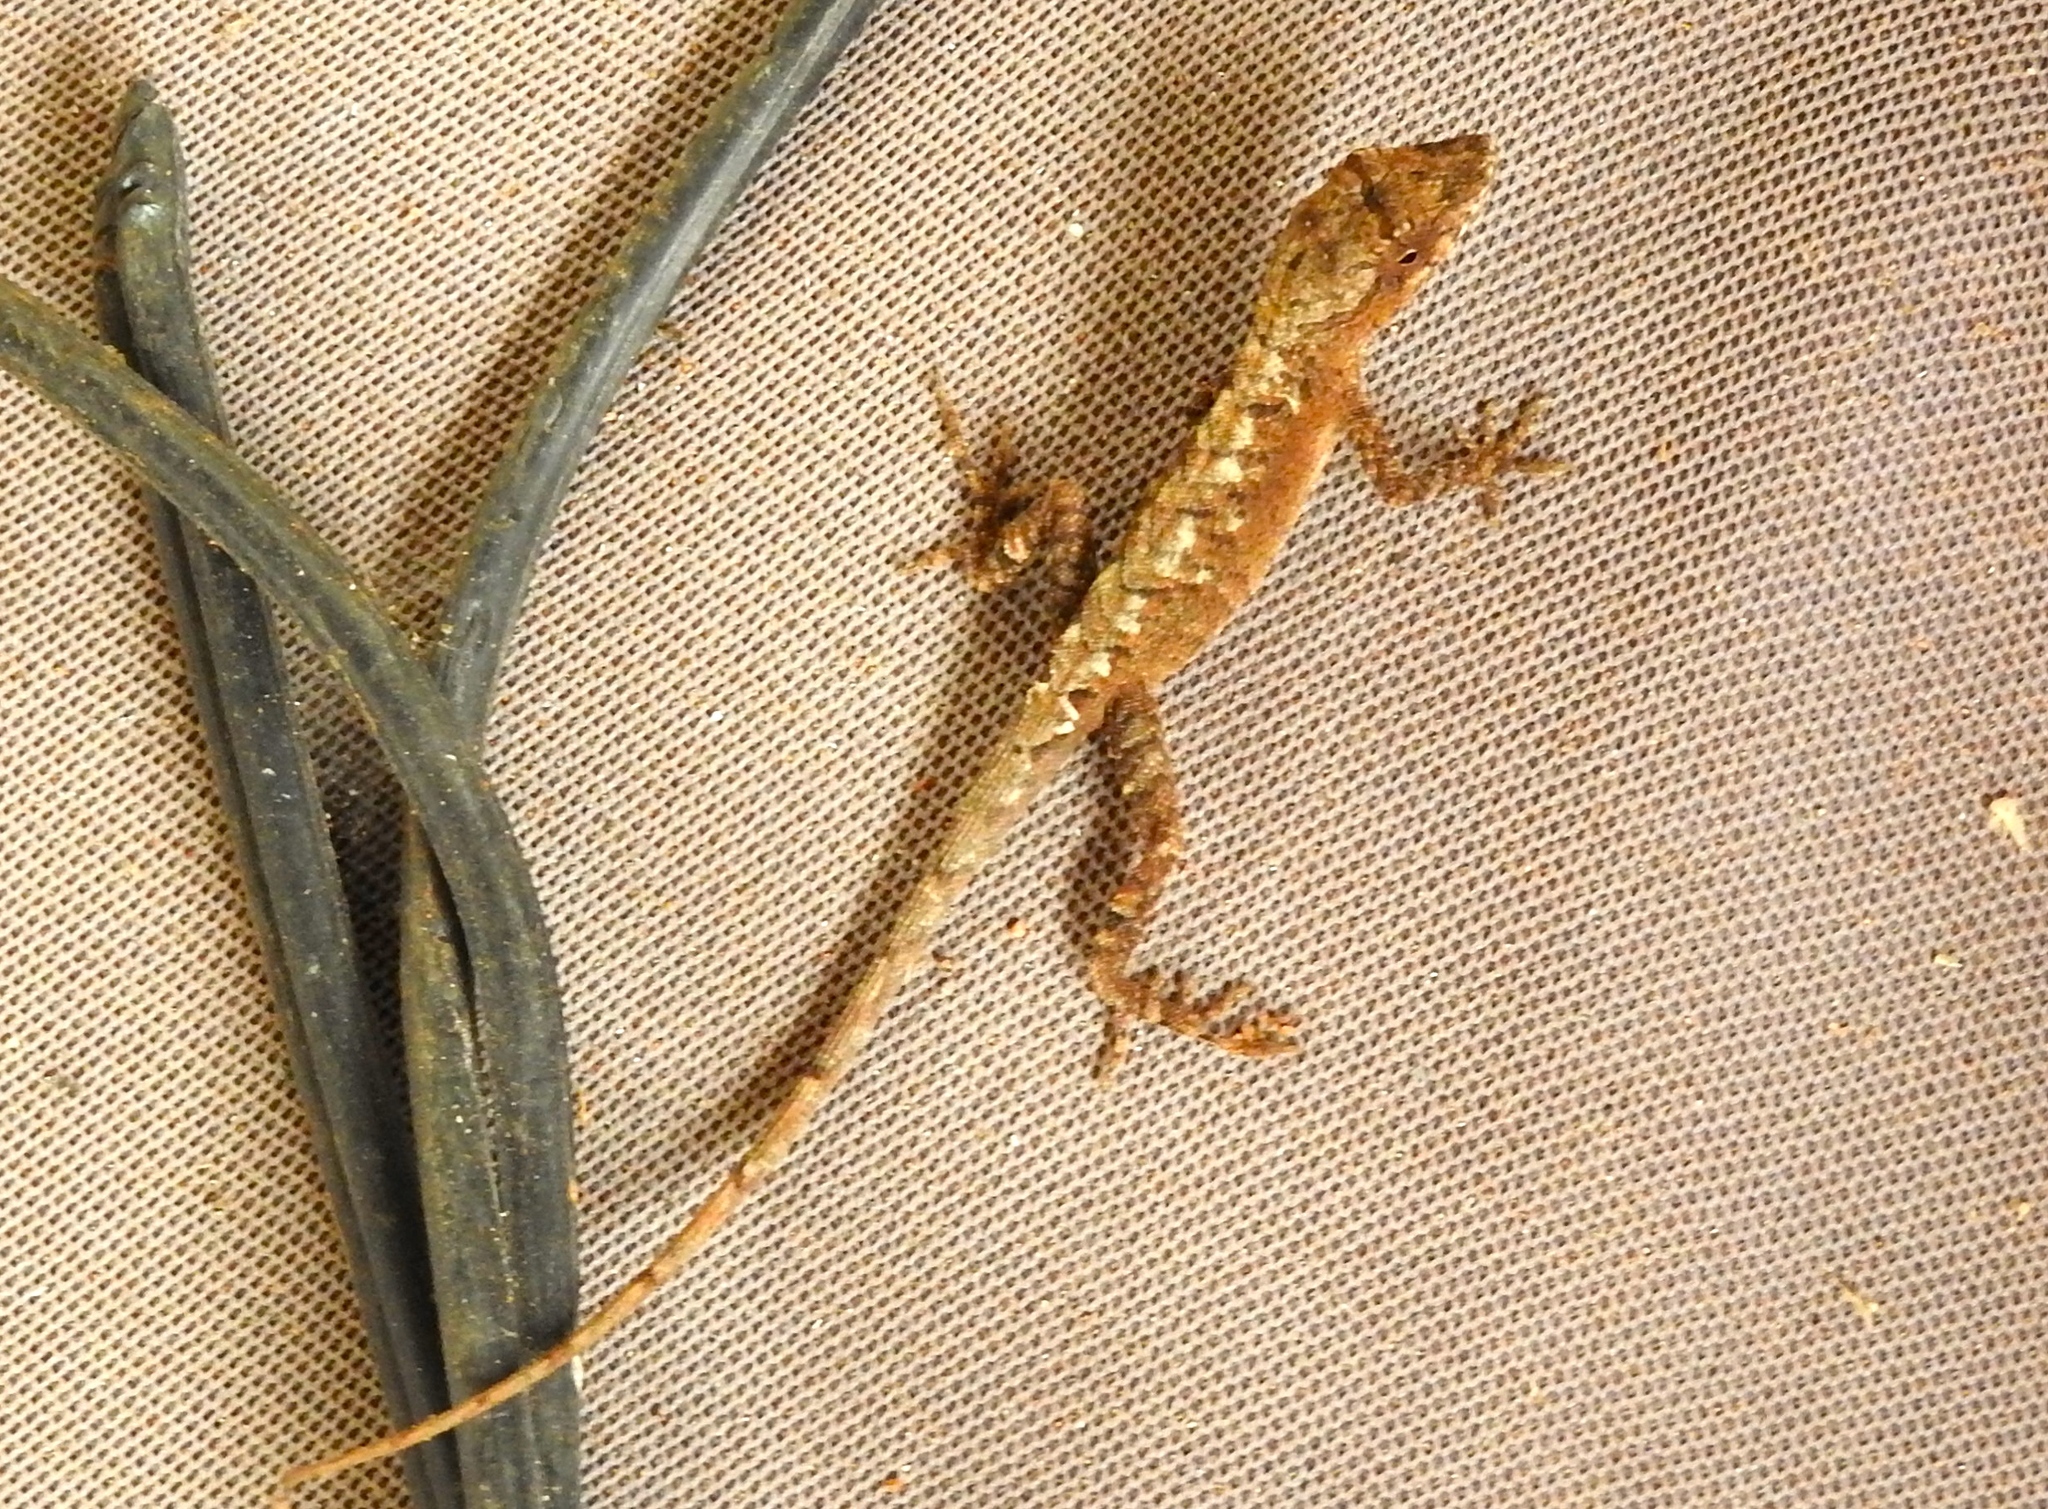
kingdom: Animalia
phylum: Chordata
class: Squamata
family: Dactyloidae
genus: Anolis
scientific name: Anolis nebulosus
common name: Clouded anole
